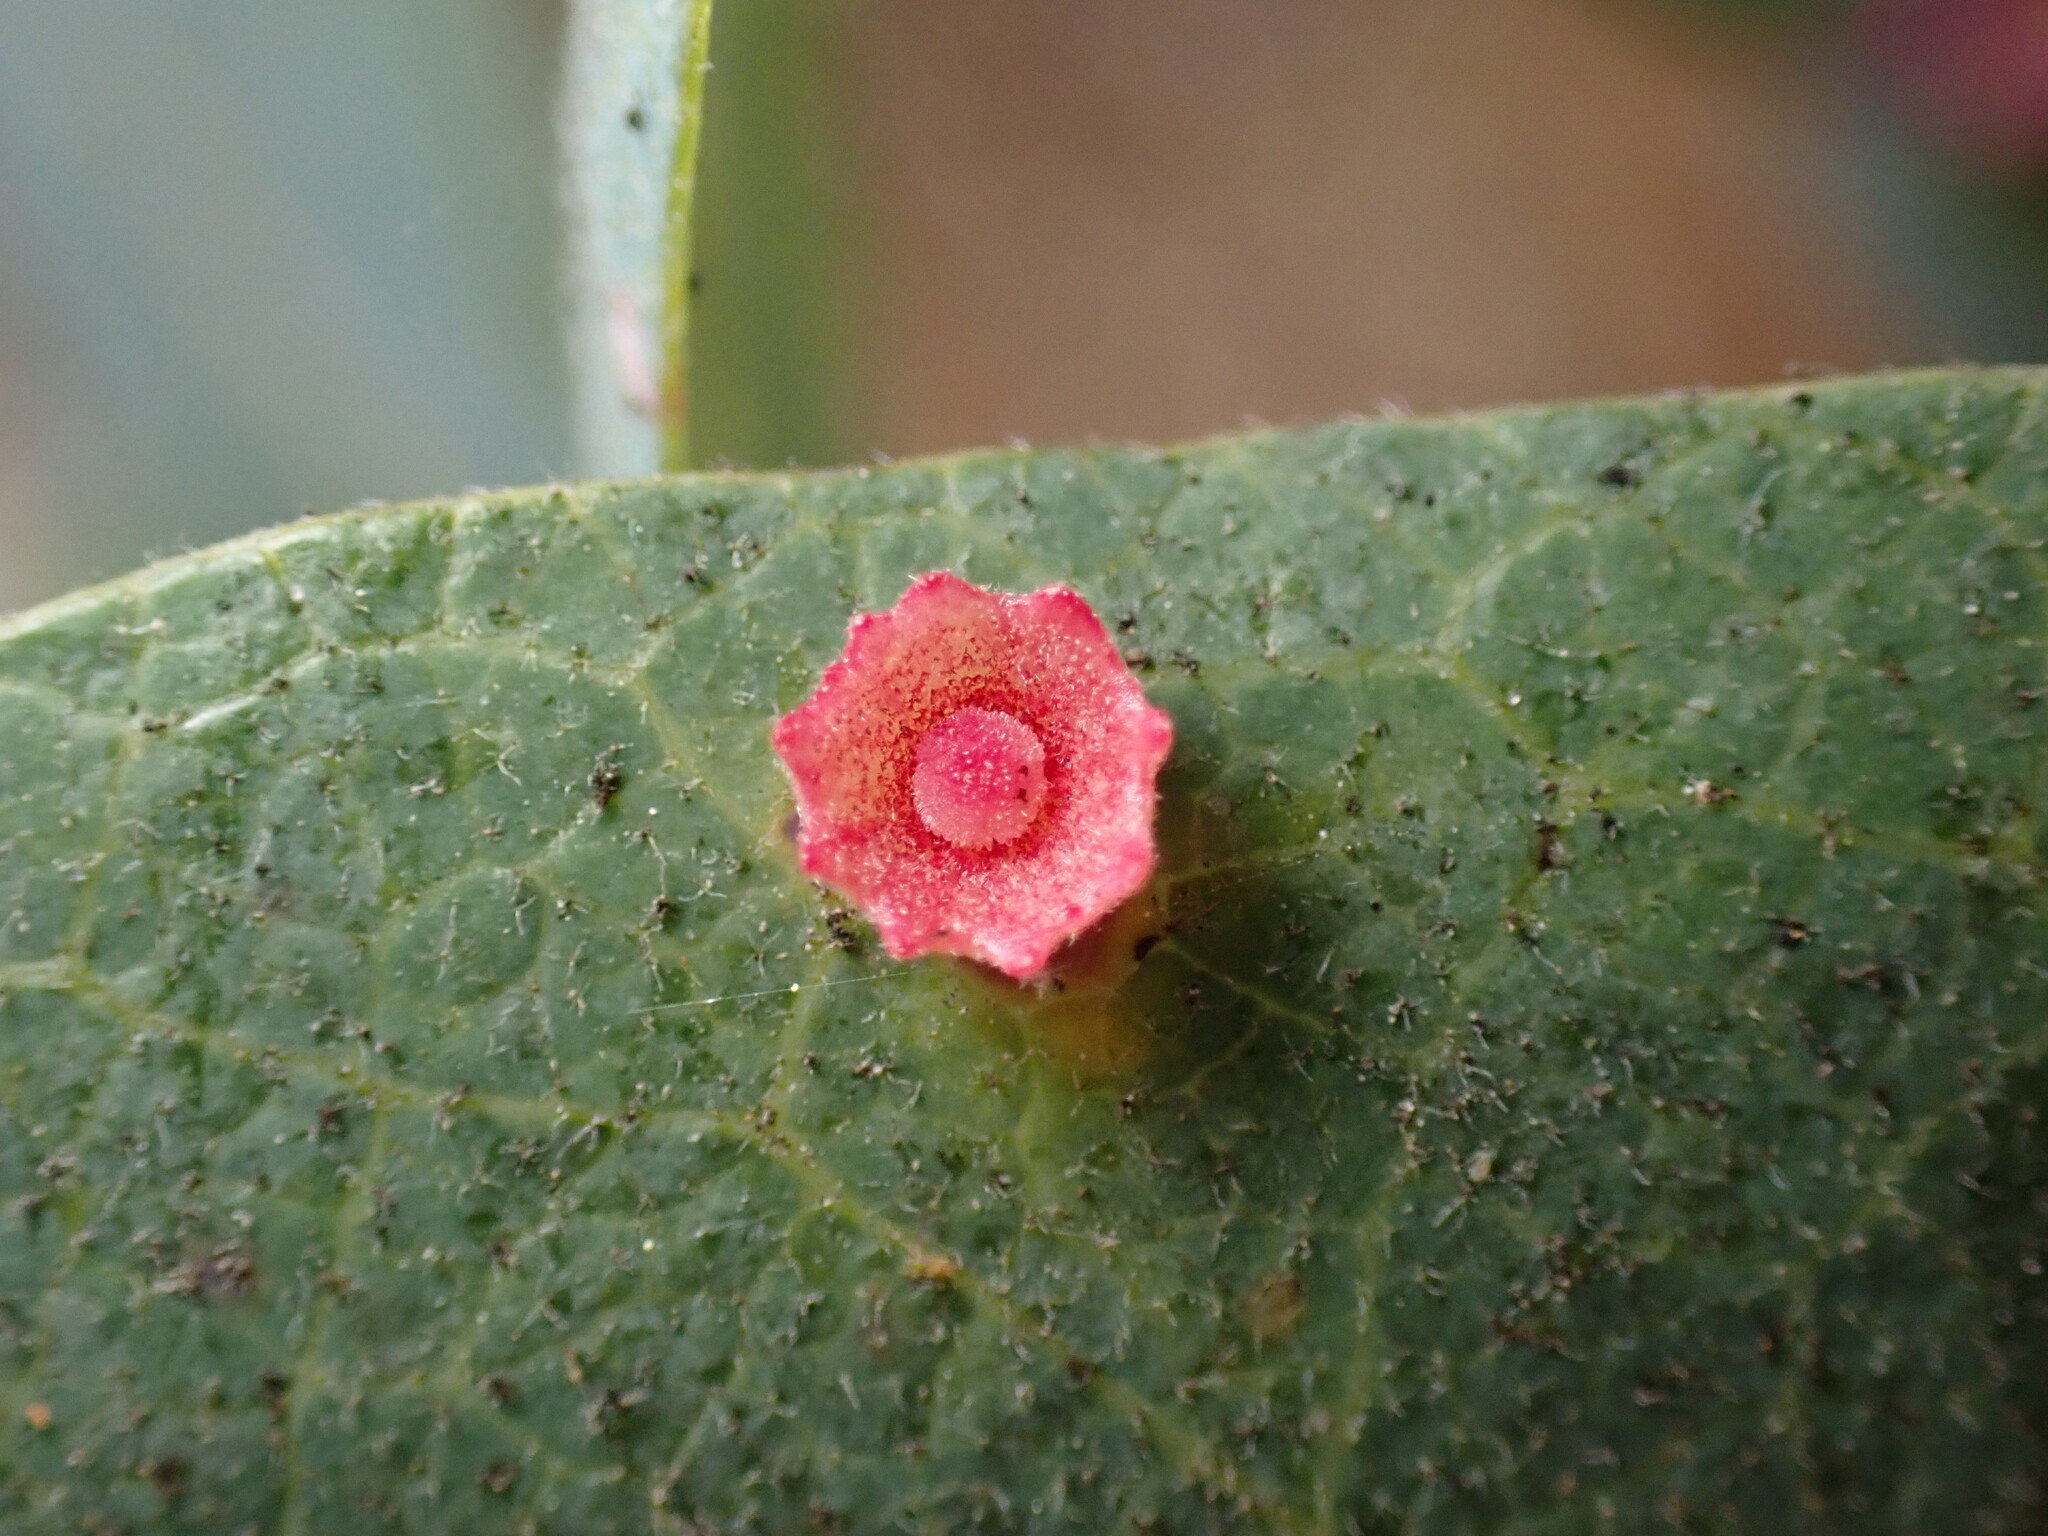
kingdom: Animalia
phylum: Arthropoda
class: Insecta
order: Hymenoptera
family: Cynipidae
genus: Andricus
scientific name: Andricus
